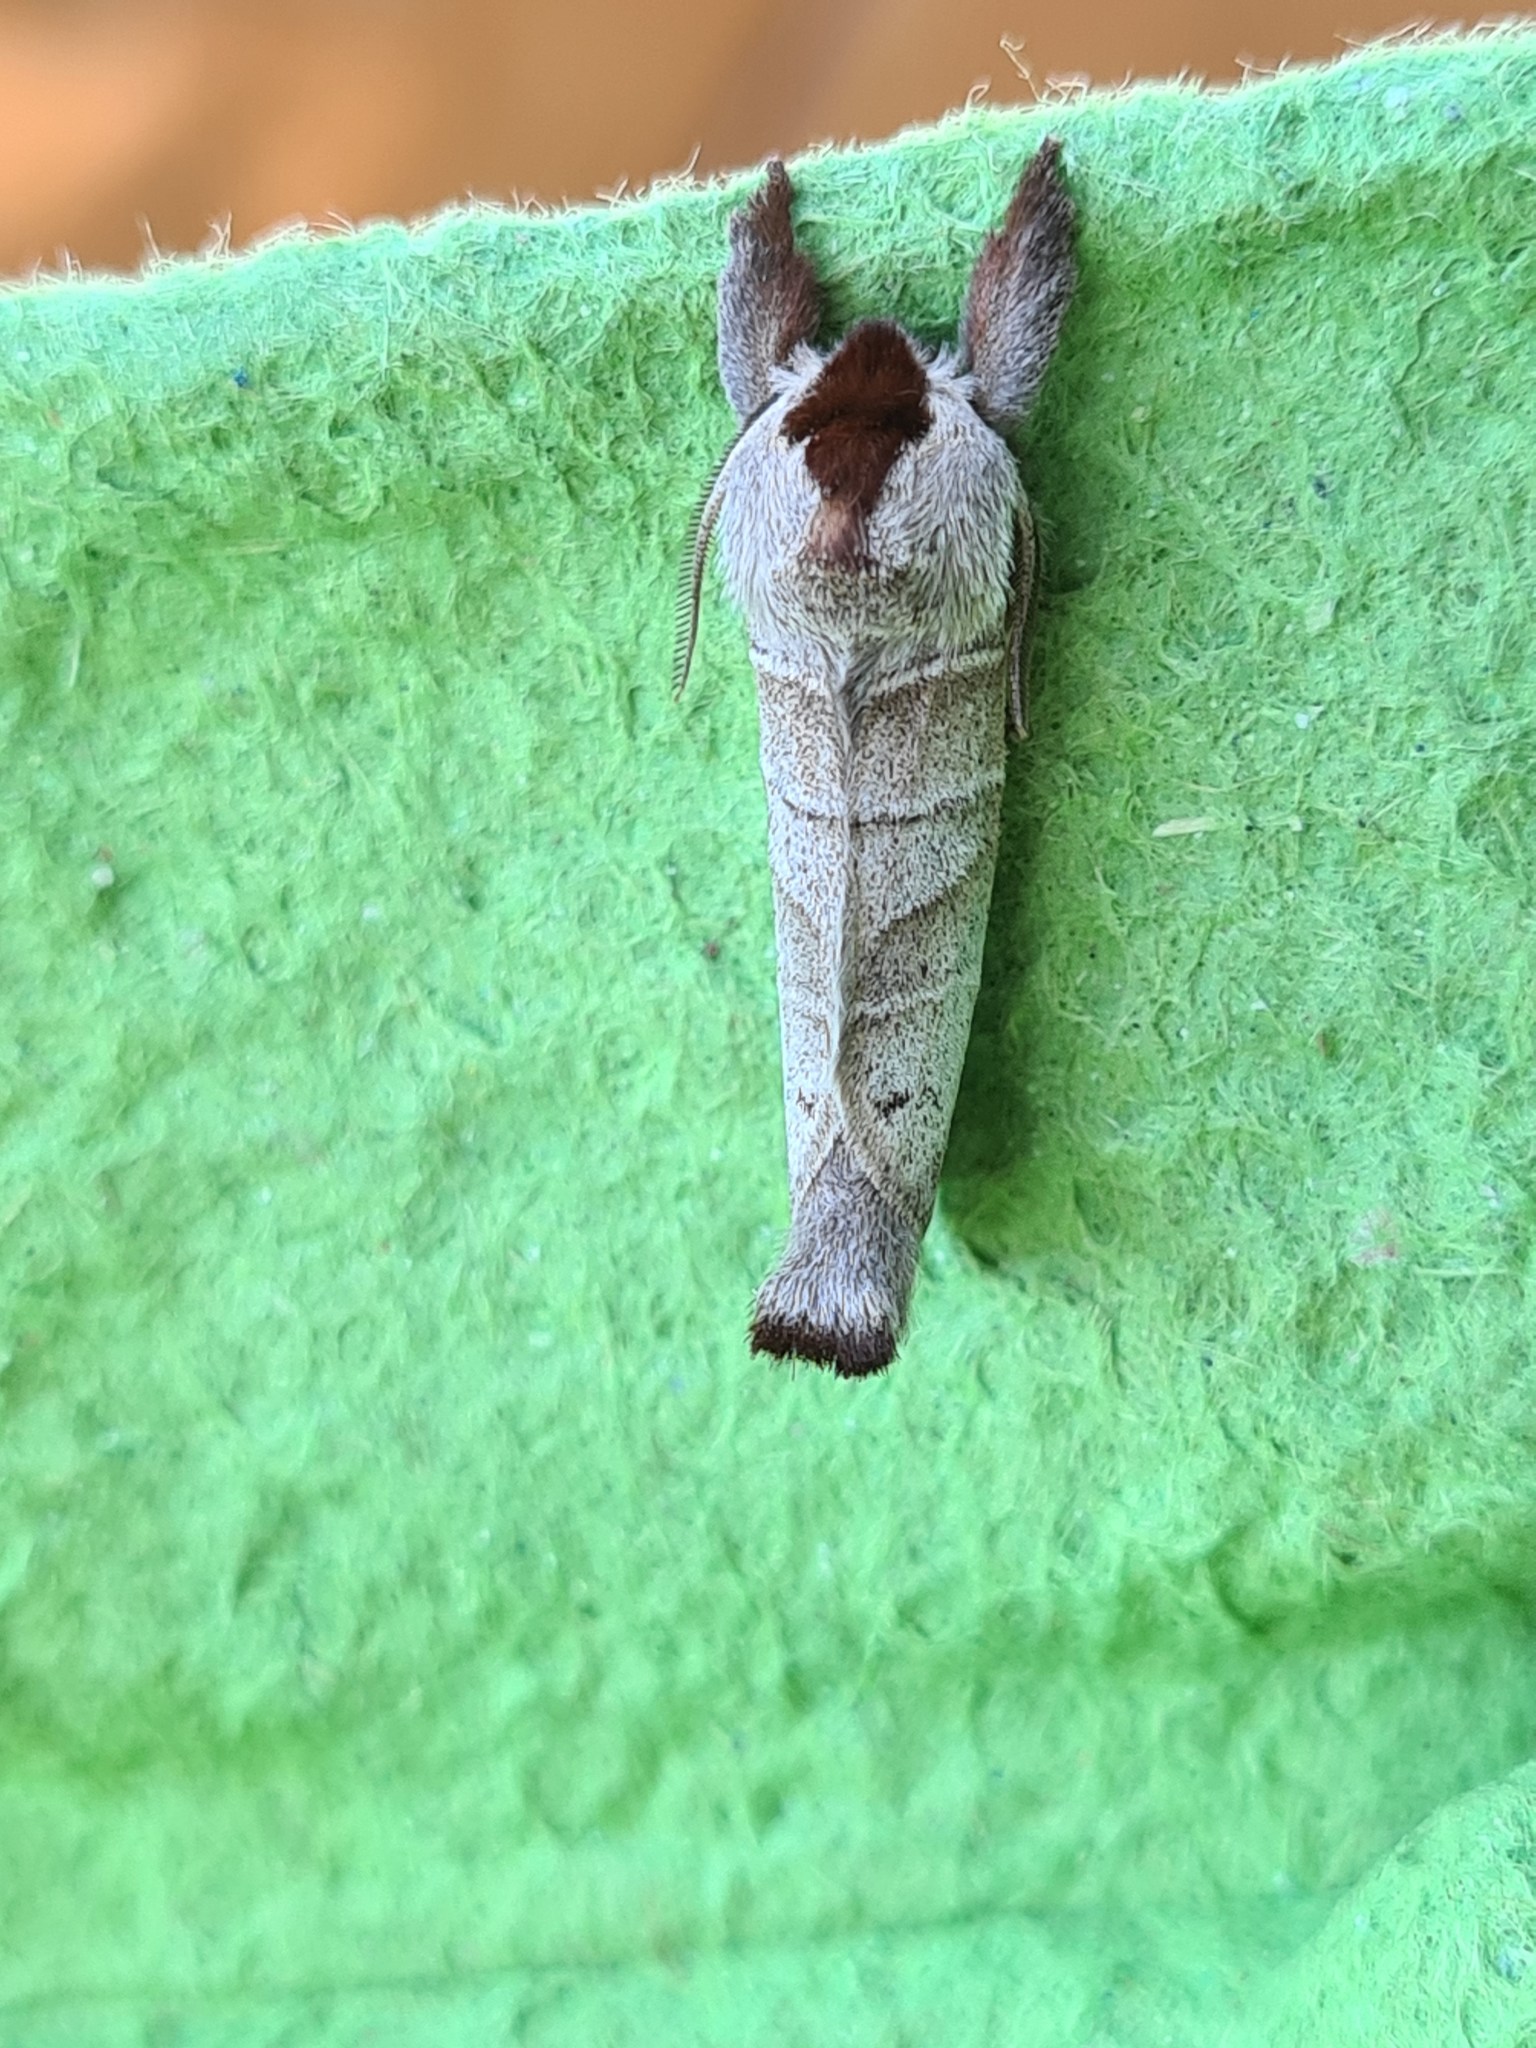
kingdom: Animalia
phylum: Arthropoda
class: Insecta
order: Lepidoptera
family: Notodontidae
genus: Clostera
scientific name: Clostera curtula
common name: Chocolate-tip
